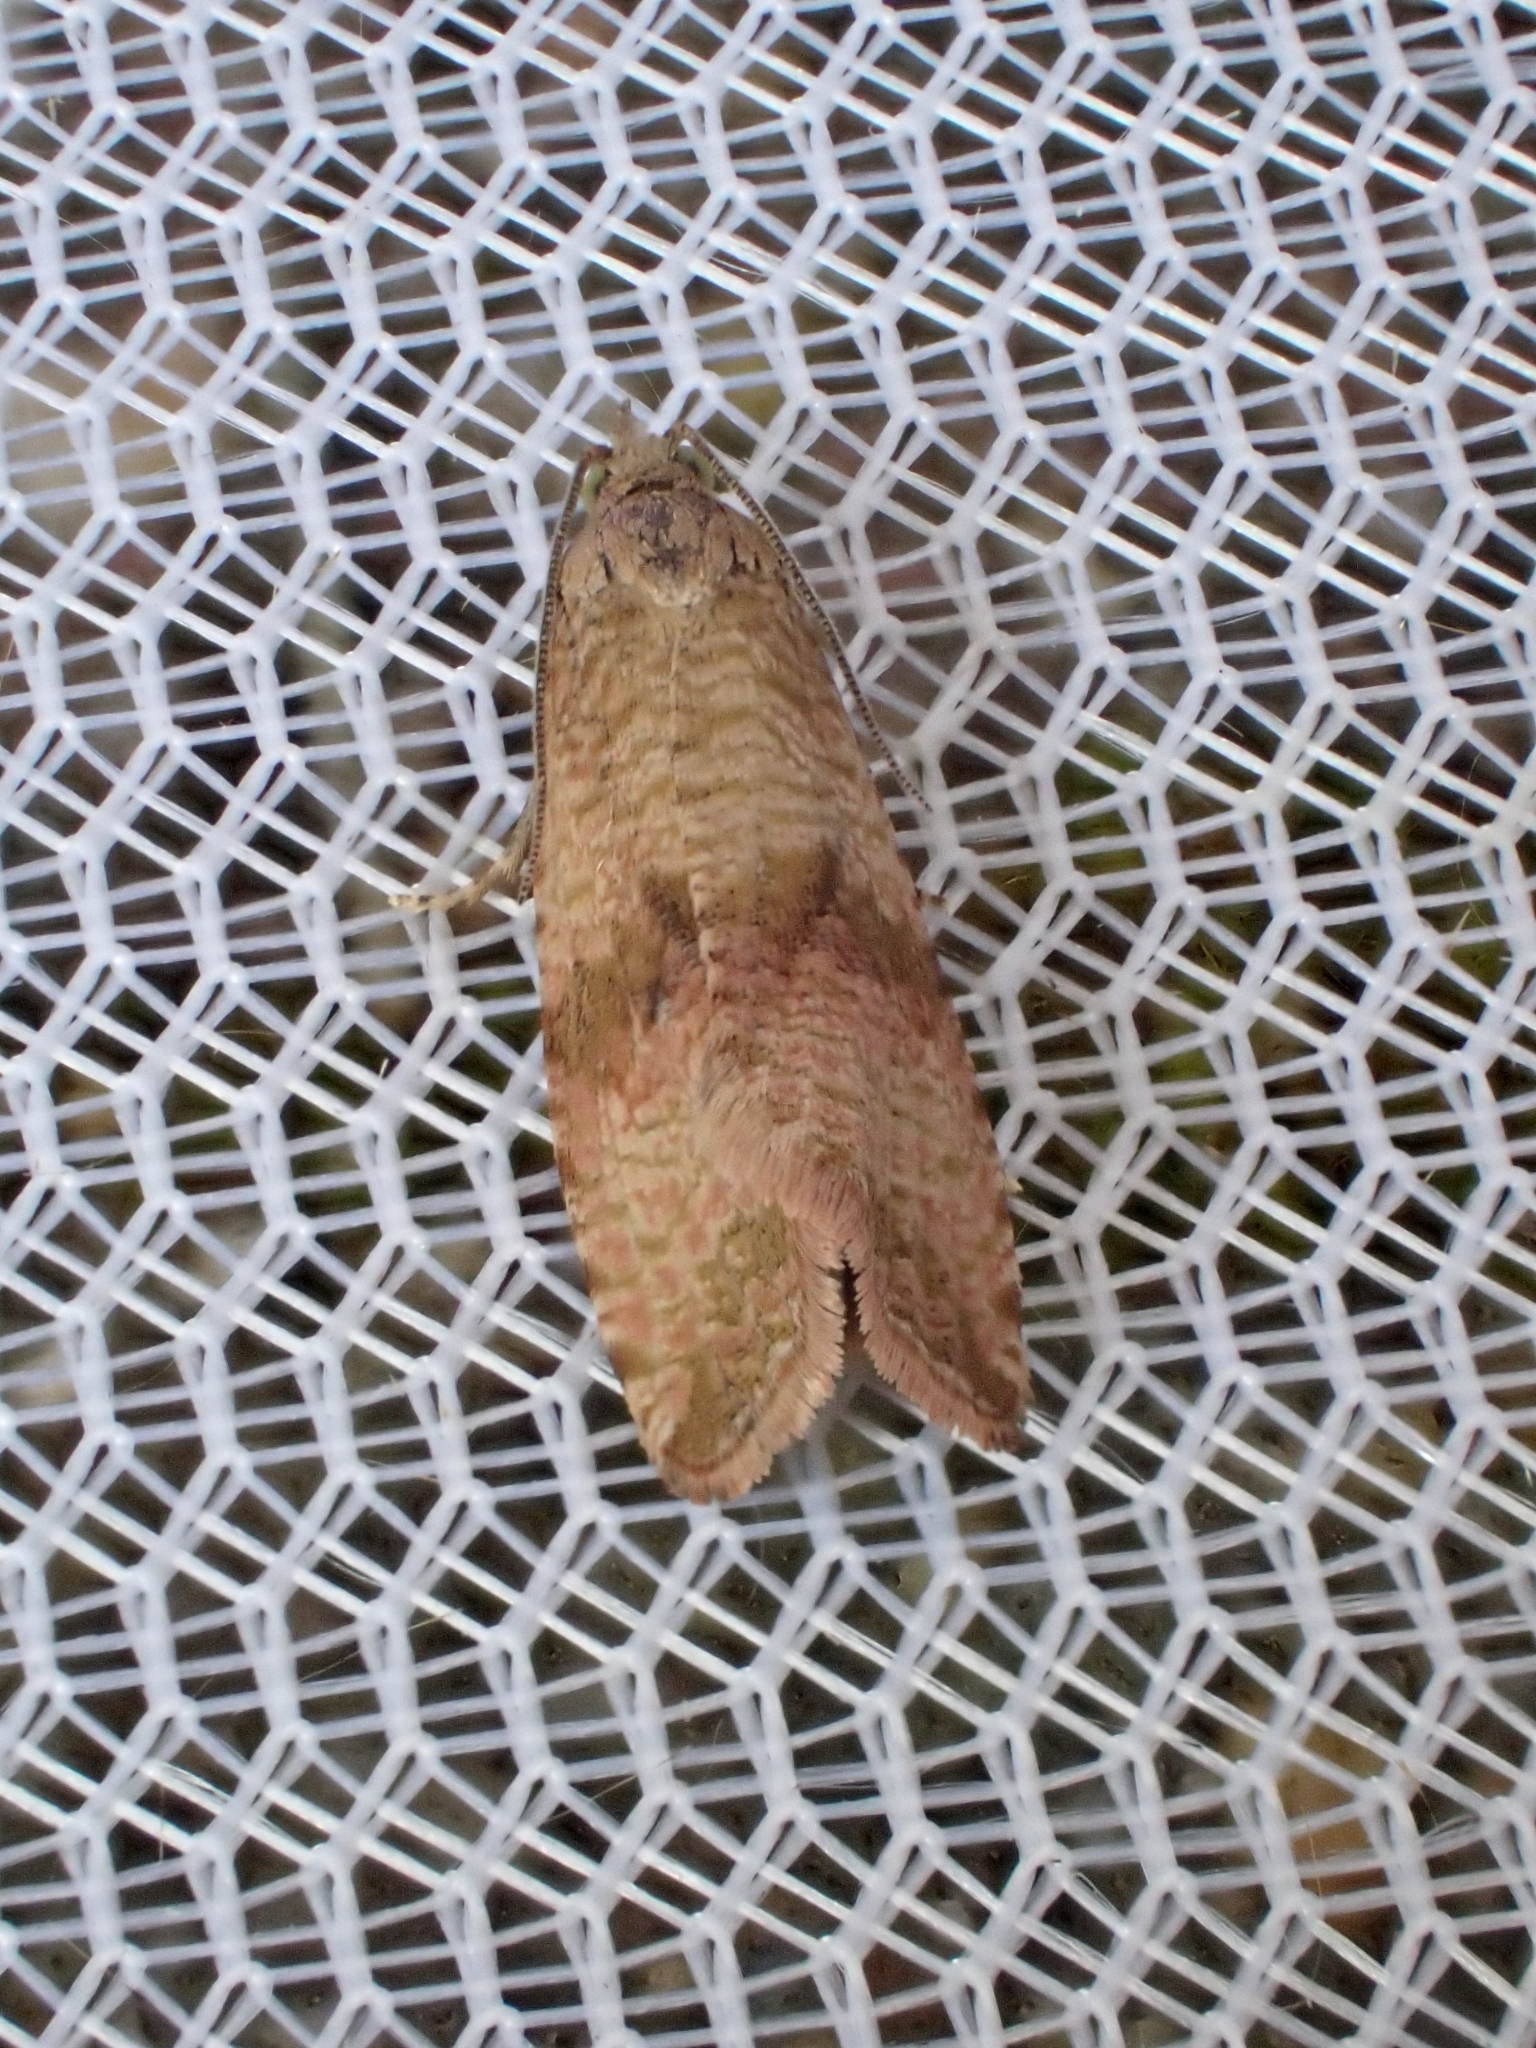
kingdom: Animalia
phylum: Arthropoda
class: Insecta
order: Lepidoptera
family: Tortricidae
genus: Celypha
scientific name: Celypha striana
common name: Barred marble
